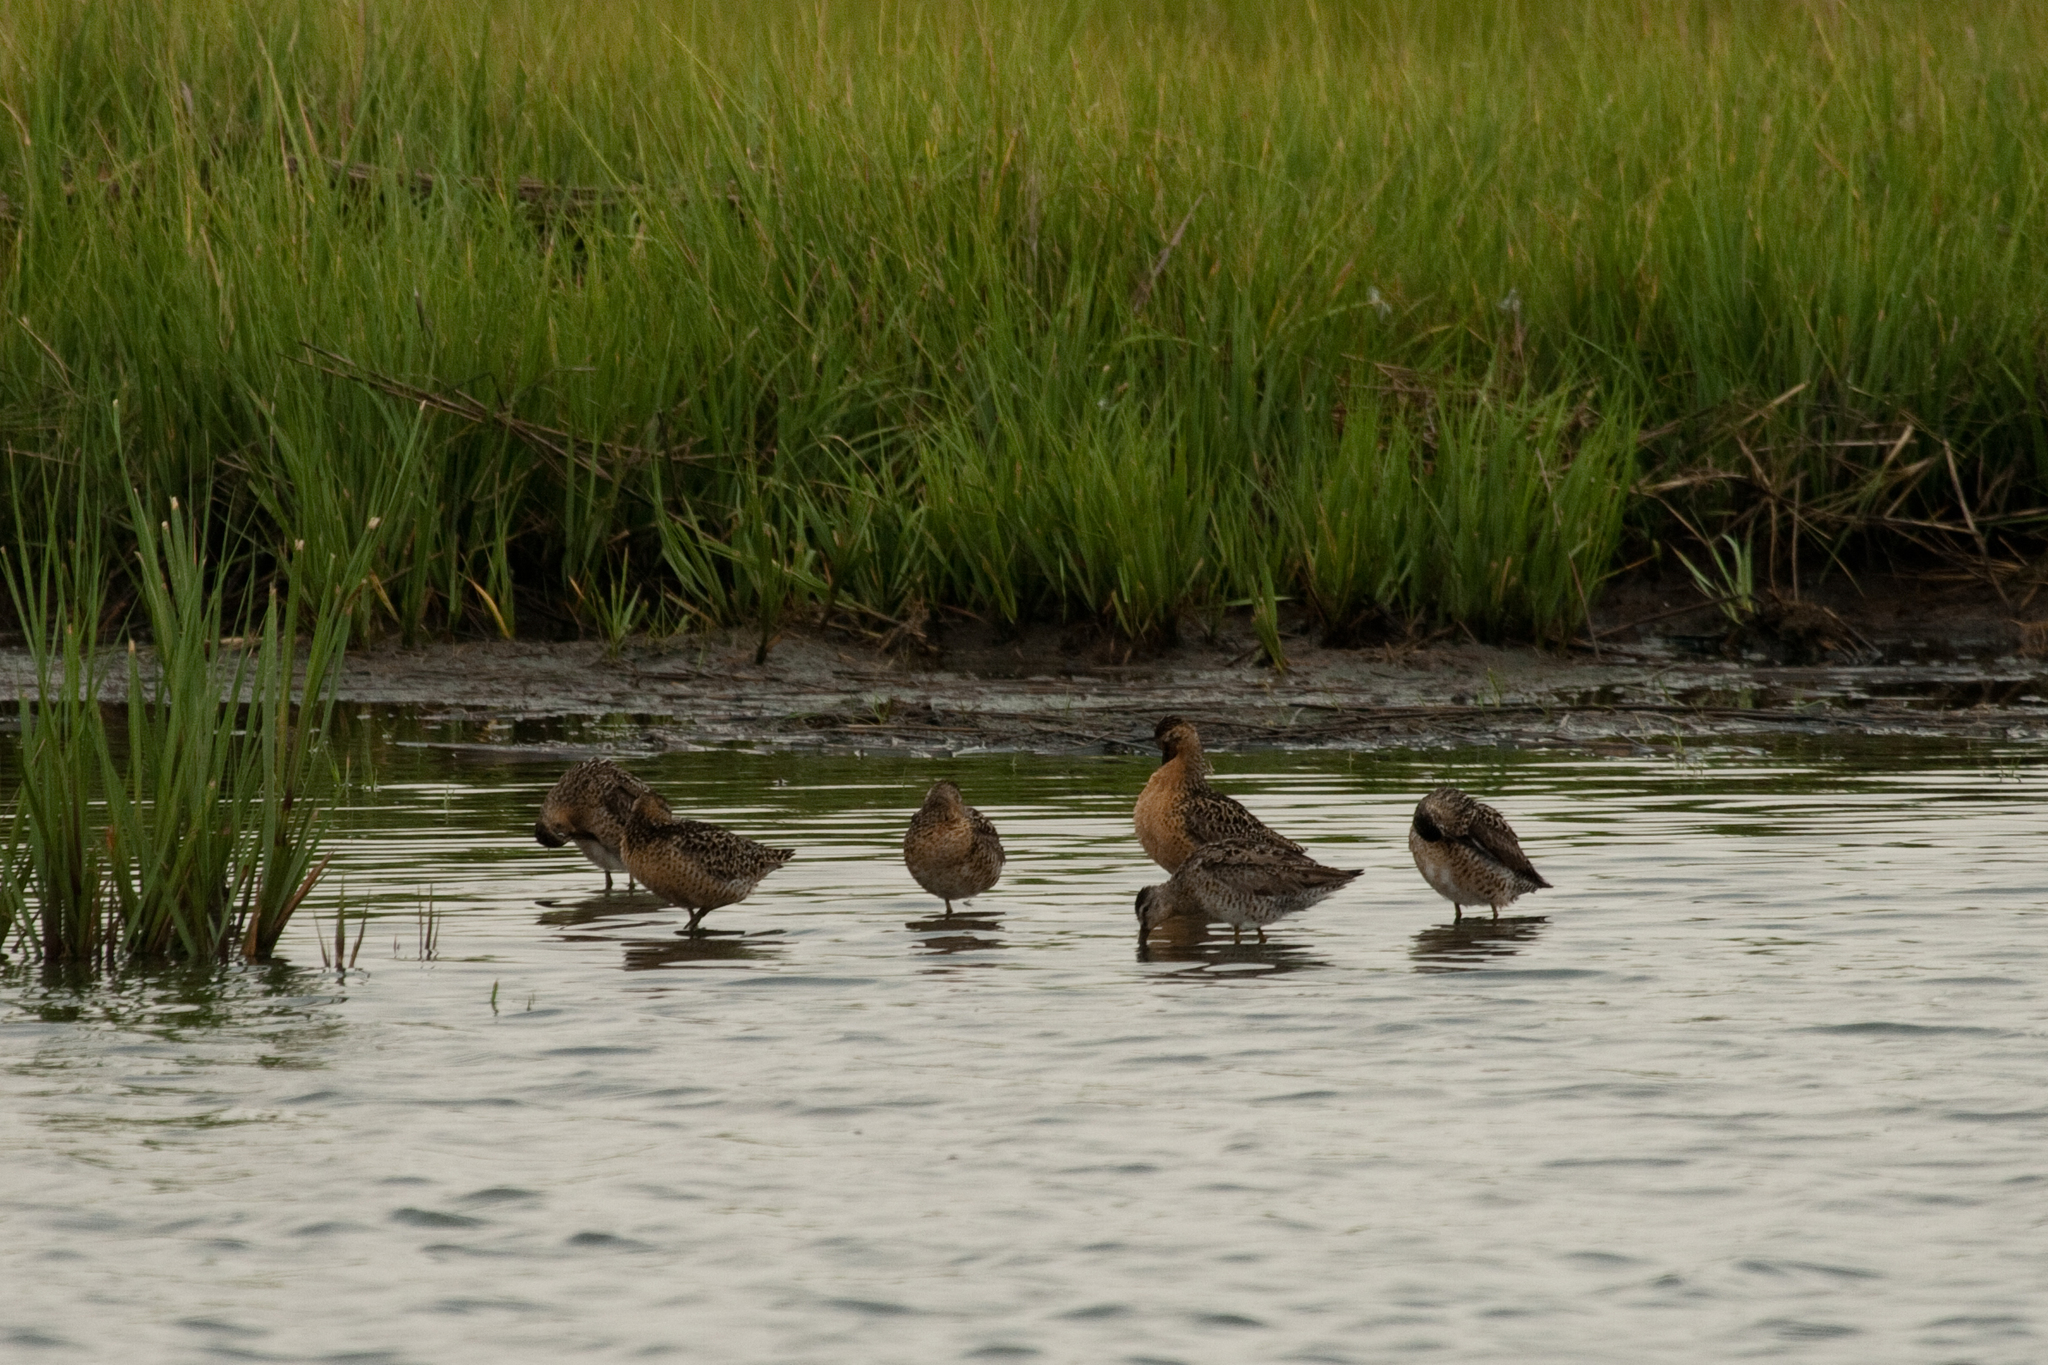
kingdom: Animalia
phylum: Chordata
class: Aves
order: Charadriiformes
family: Scolopacidae
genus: Limnodromus
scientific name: Limnodromus griseus
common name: Short-billed dowitcher
